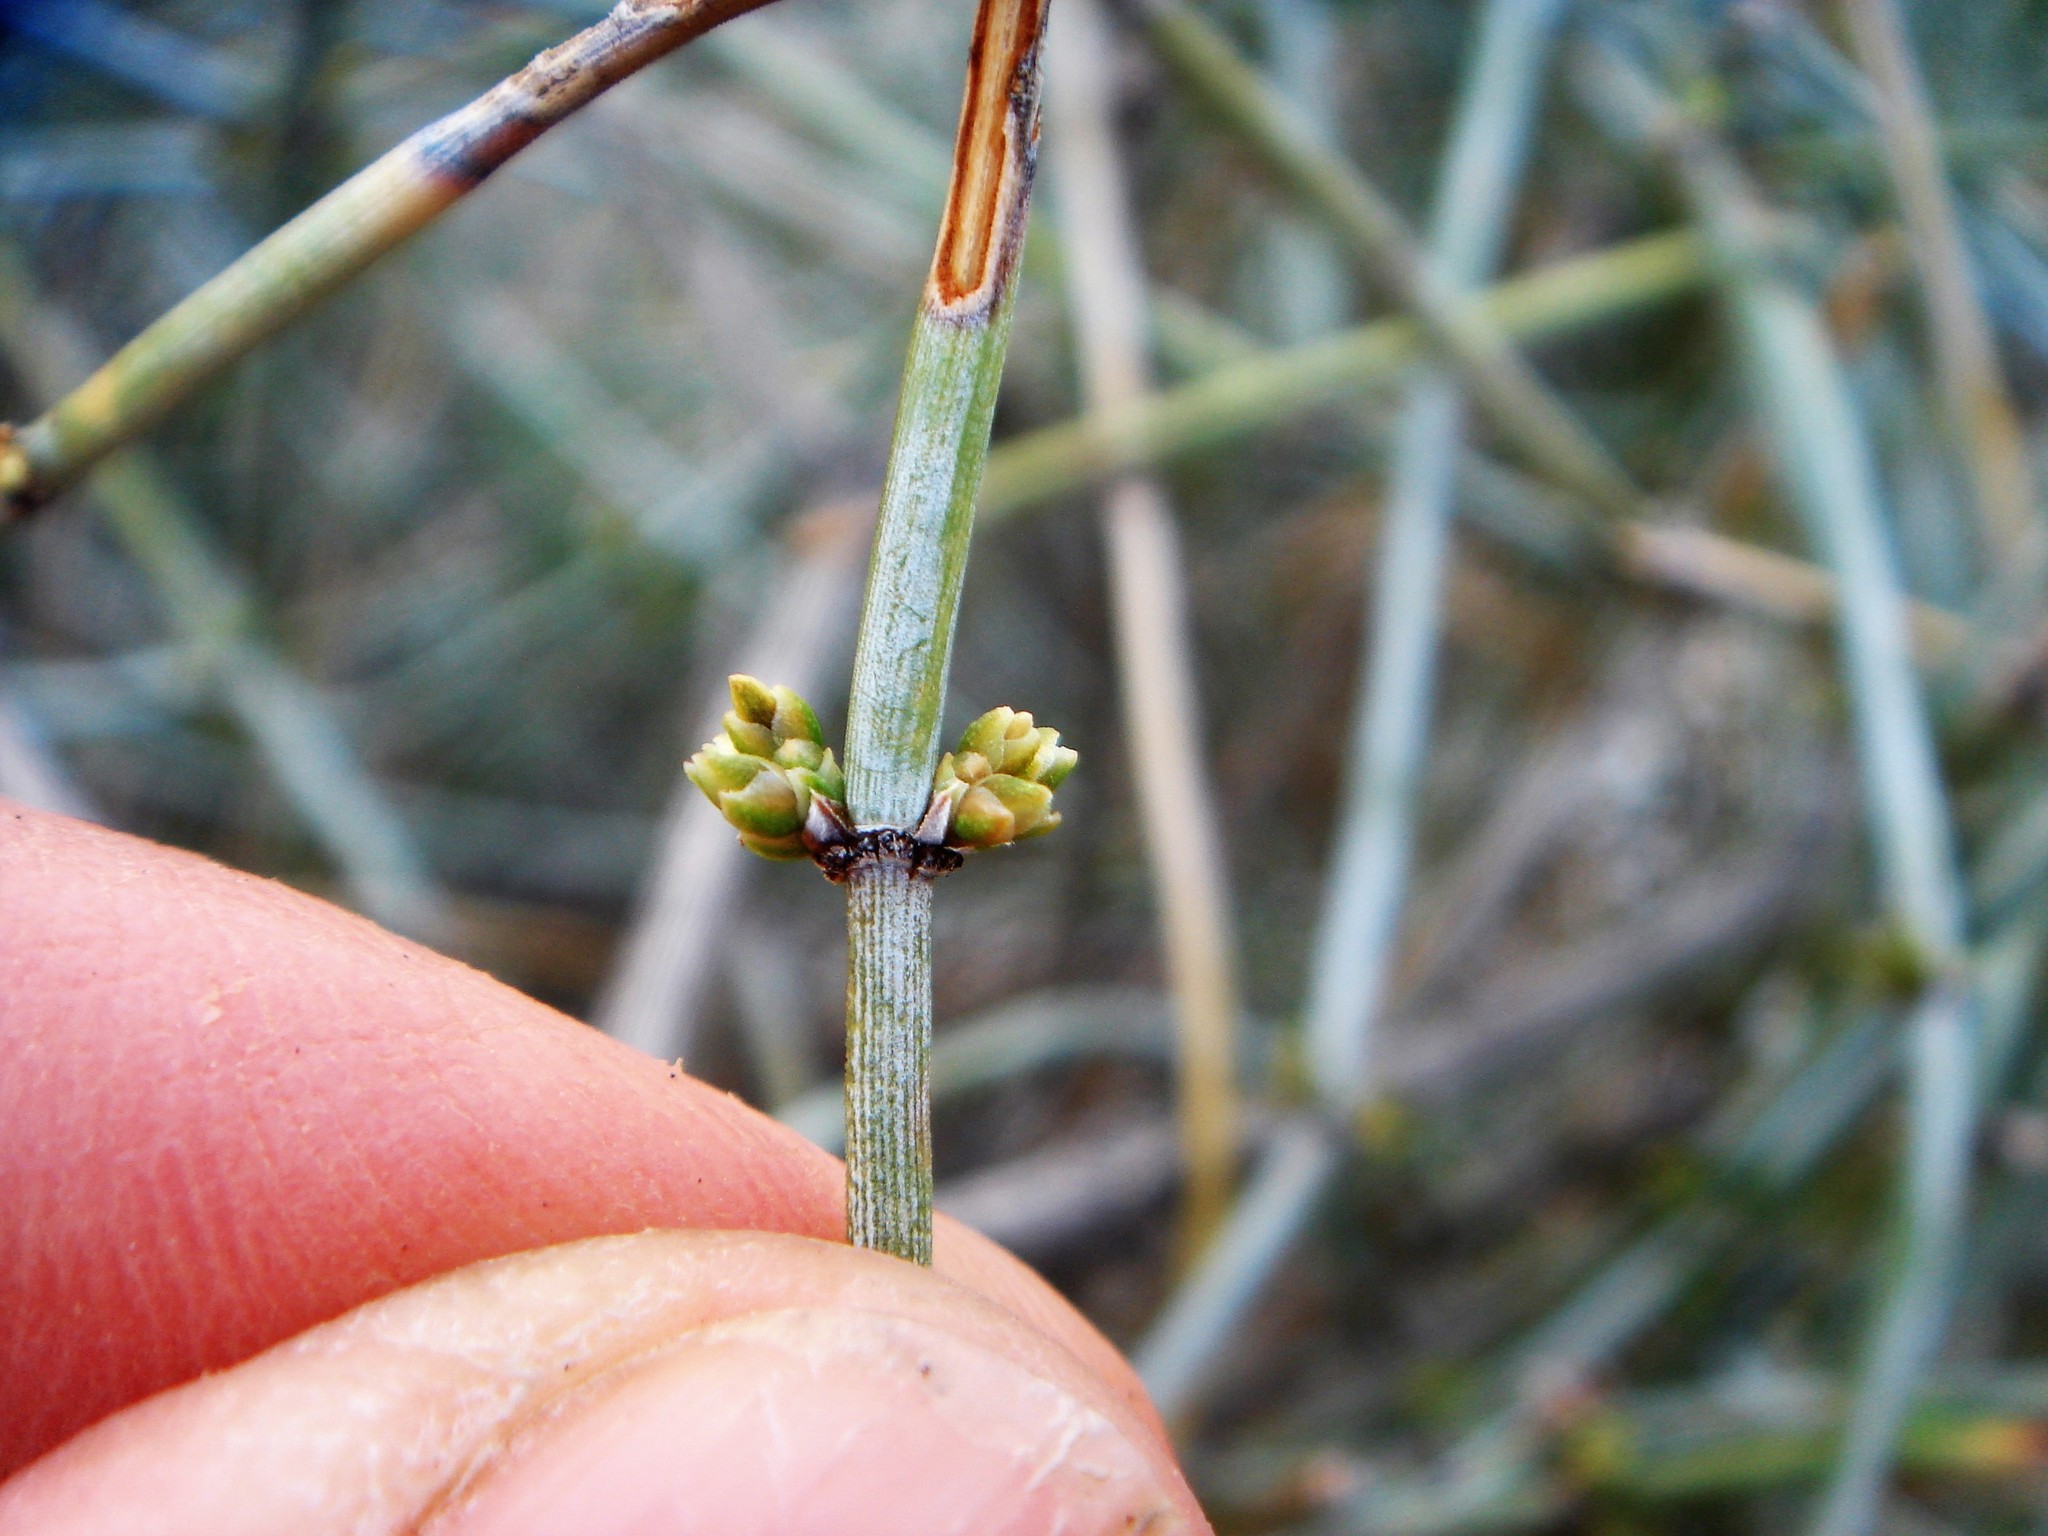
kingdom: Plantae
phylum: Tracheophyta
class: Gnetopsida
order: Ephedrales
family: Ephedraceae
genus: Ephedra
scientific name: Ephedra aspera
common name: Boundary ephedra
